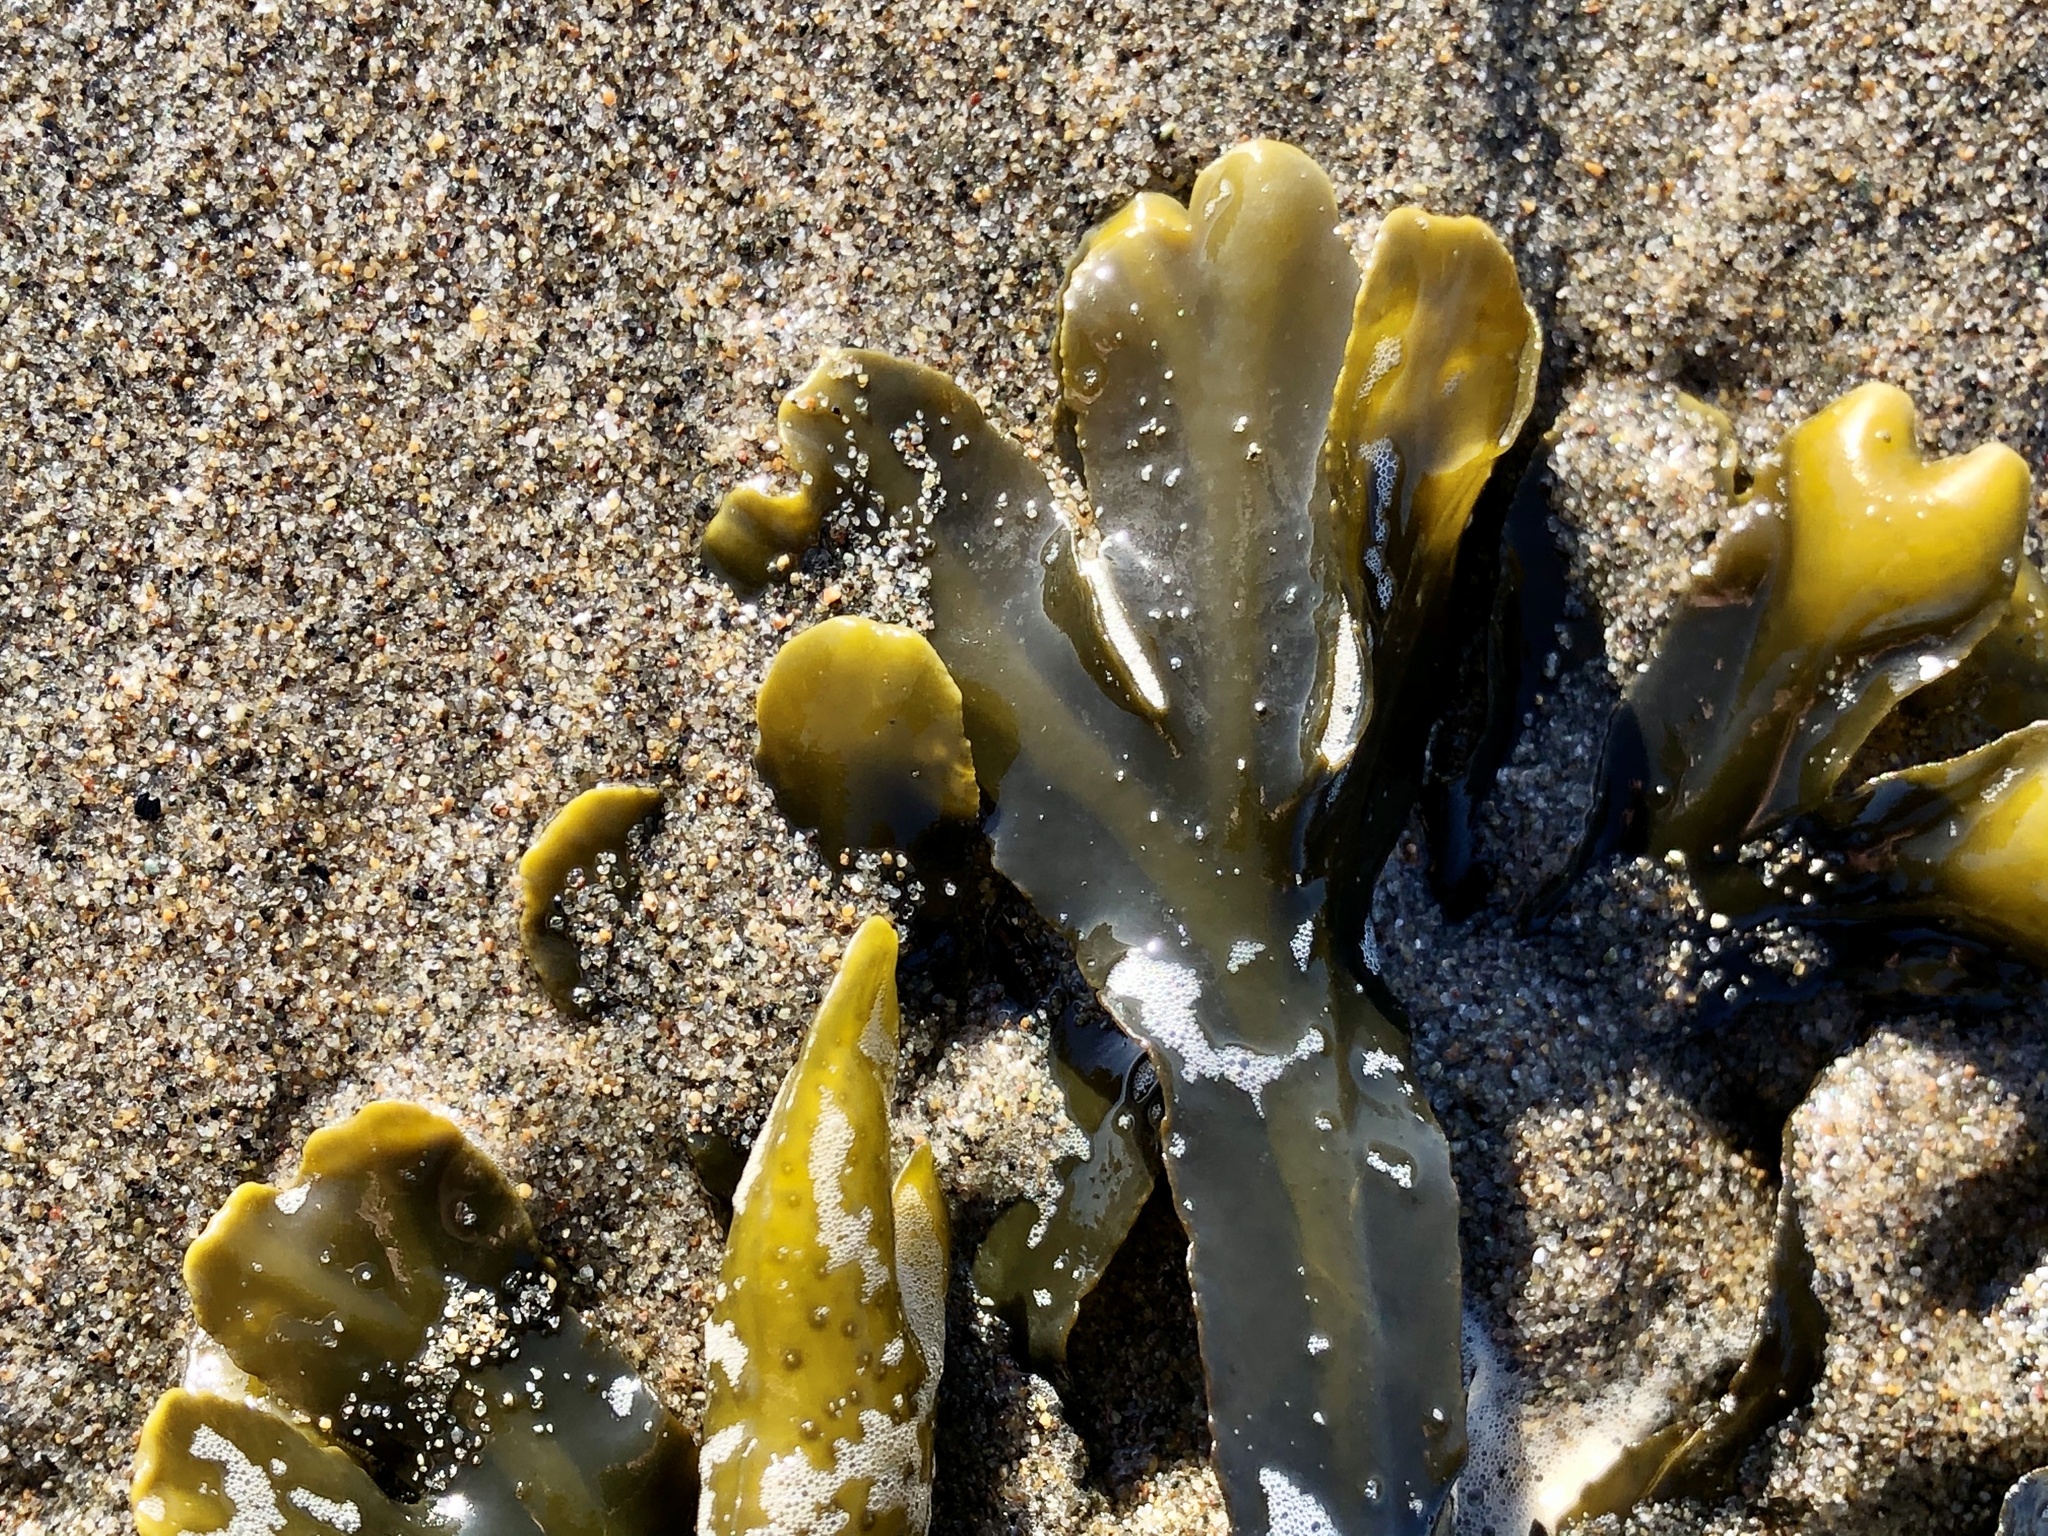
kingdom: Chromista
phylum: Ochrophyta
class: Phaeophyceae
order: Fucales
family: Fucaceae
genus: Fucus
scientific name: Fucus distichus
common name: Rockweed
